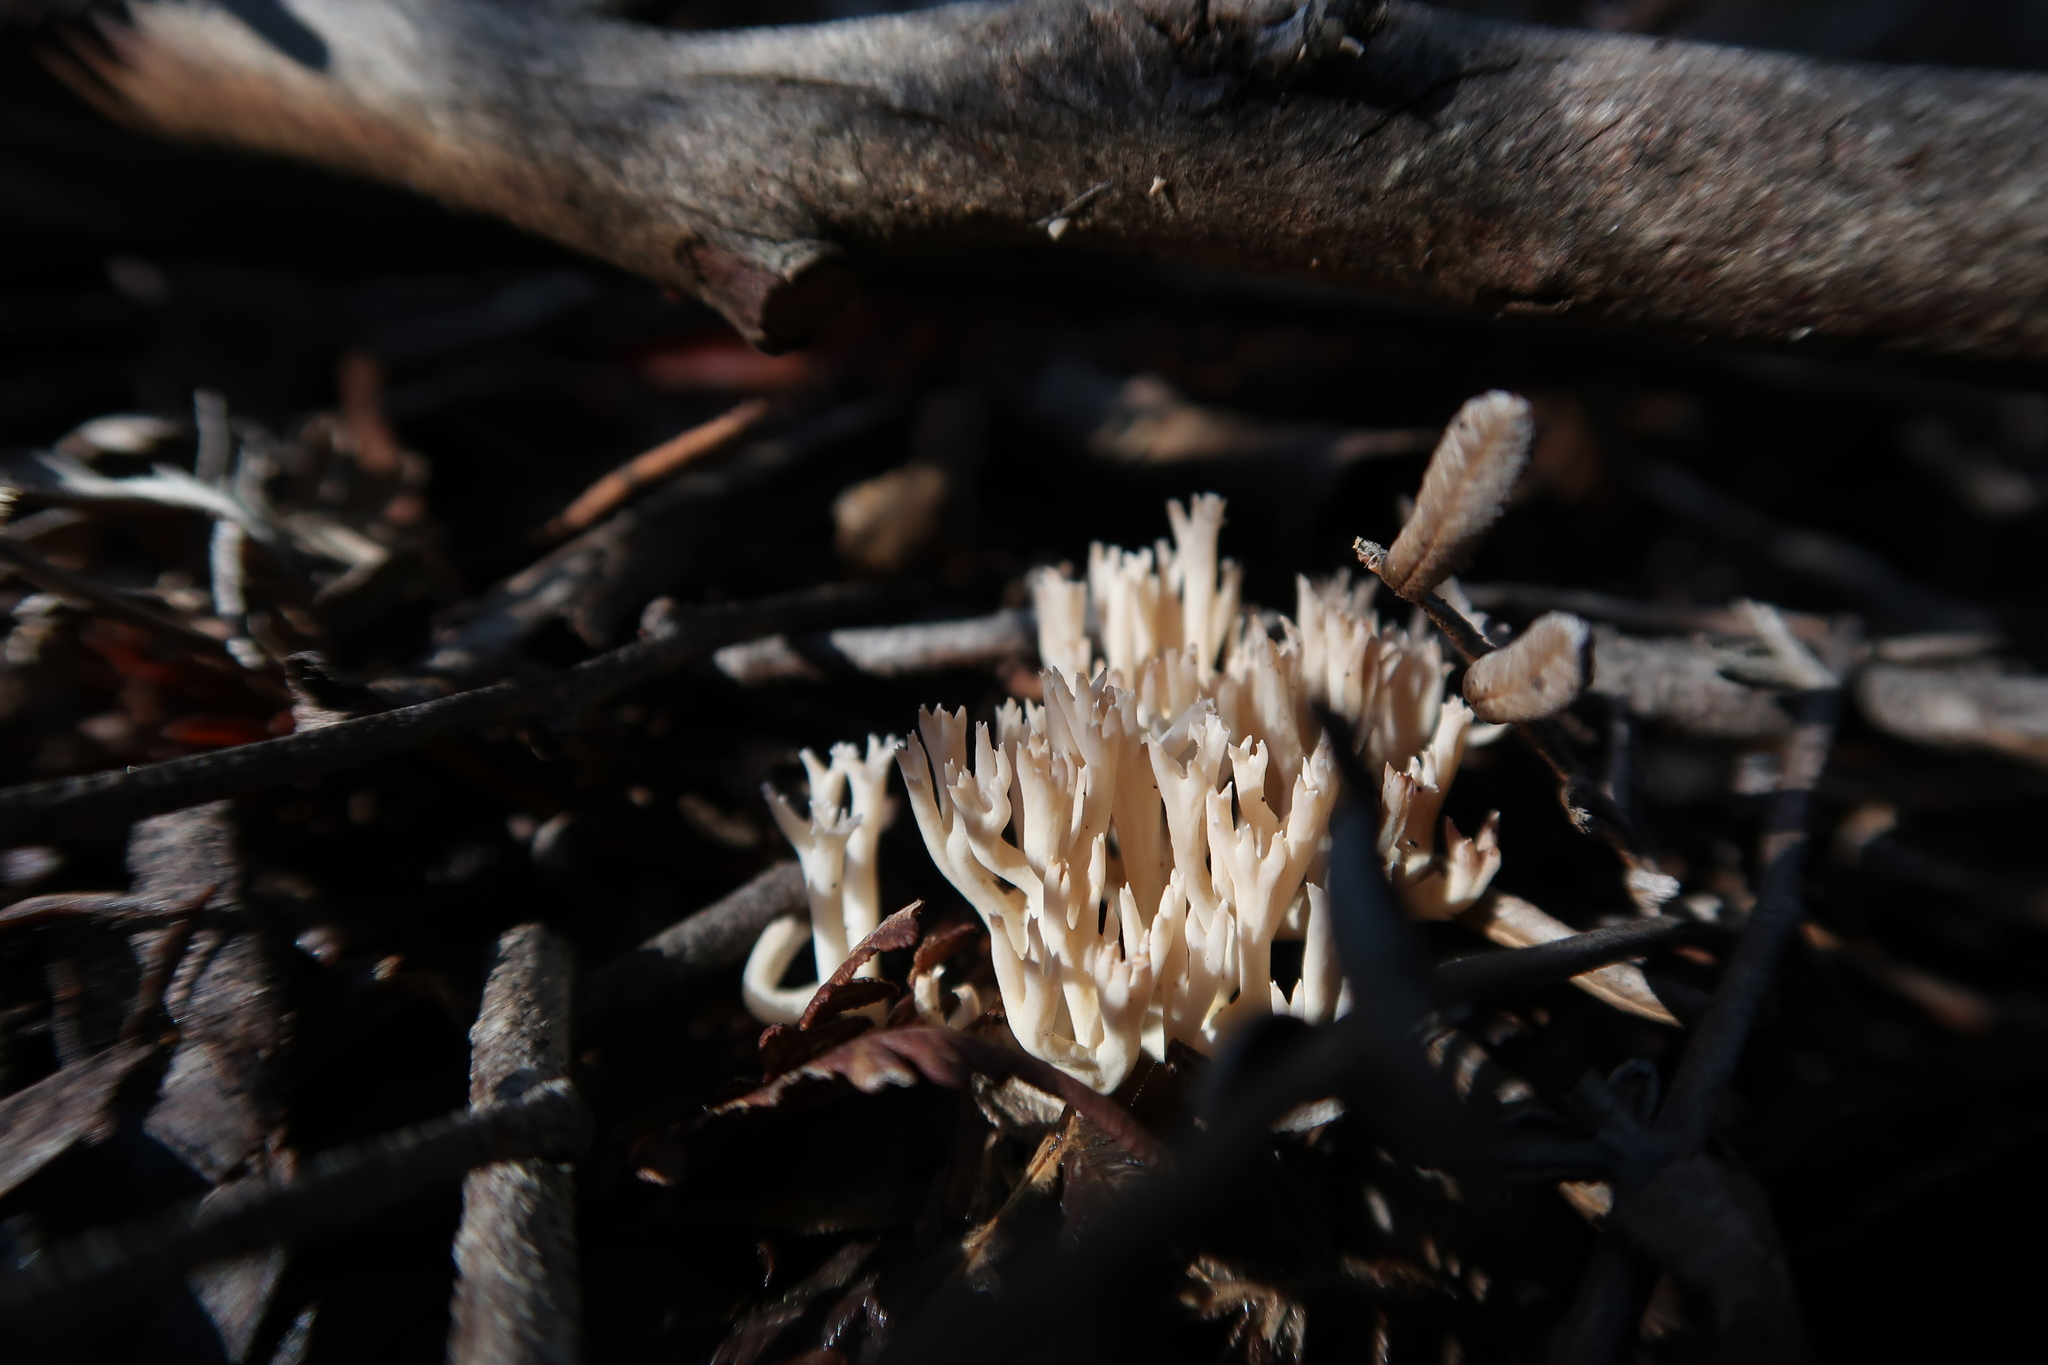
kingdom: Fungi
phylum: Basidiomycota
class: Agaricomycetes
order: Gomphales
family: Gomphaceae
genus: Ramaria
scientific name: Ramaria filicicola
